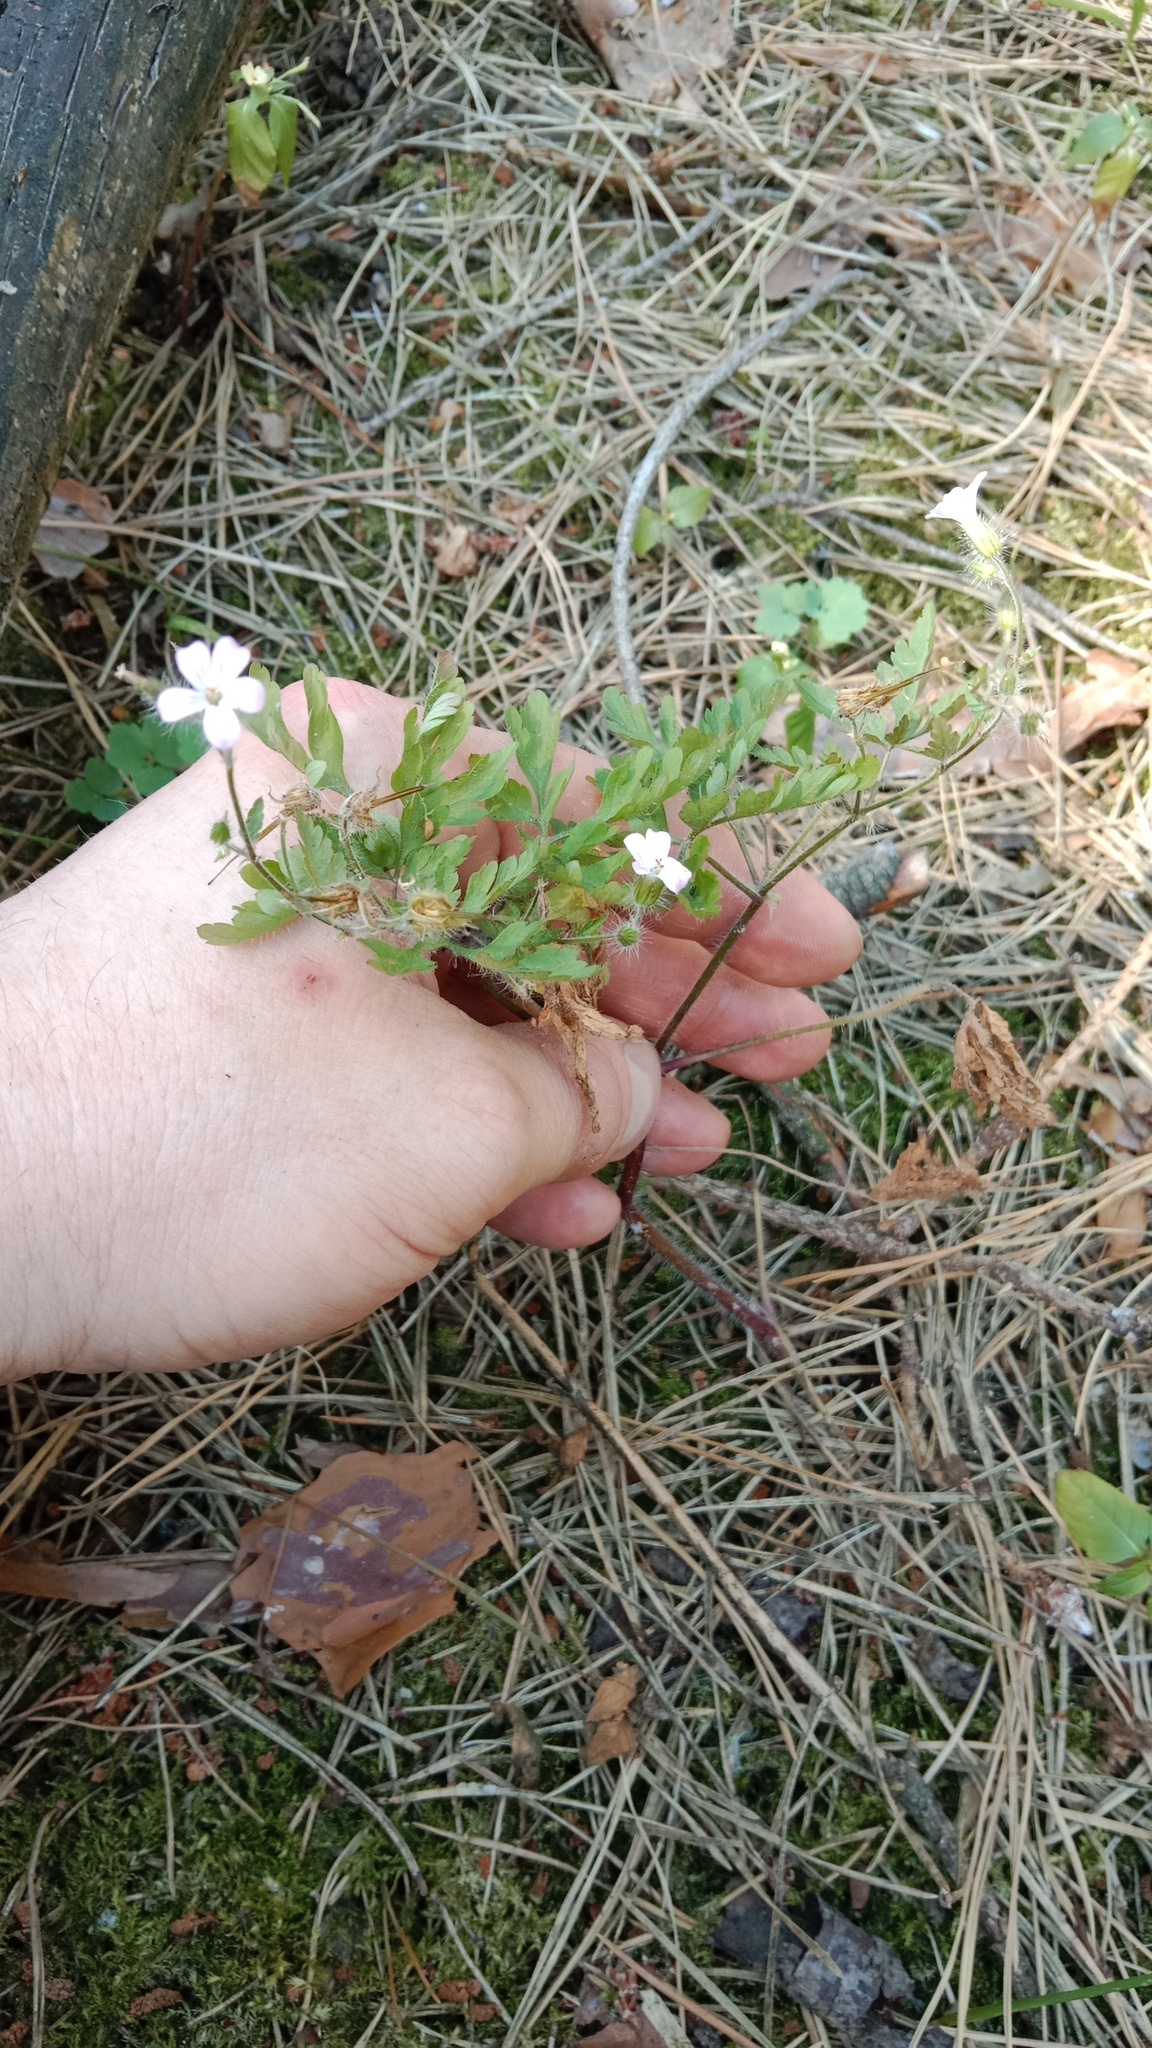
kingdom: Plantae
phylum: Tracheophyta
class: Magnoliopsida
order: Geraniales
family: Geraniaceae
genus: Geranium
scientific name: Geranium robertianum
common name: Herb-robert
